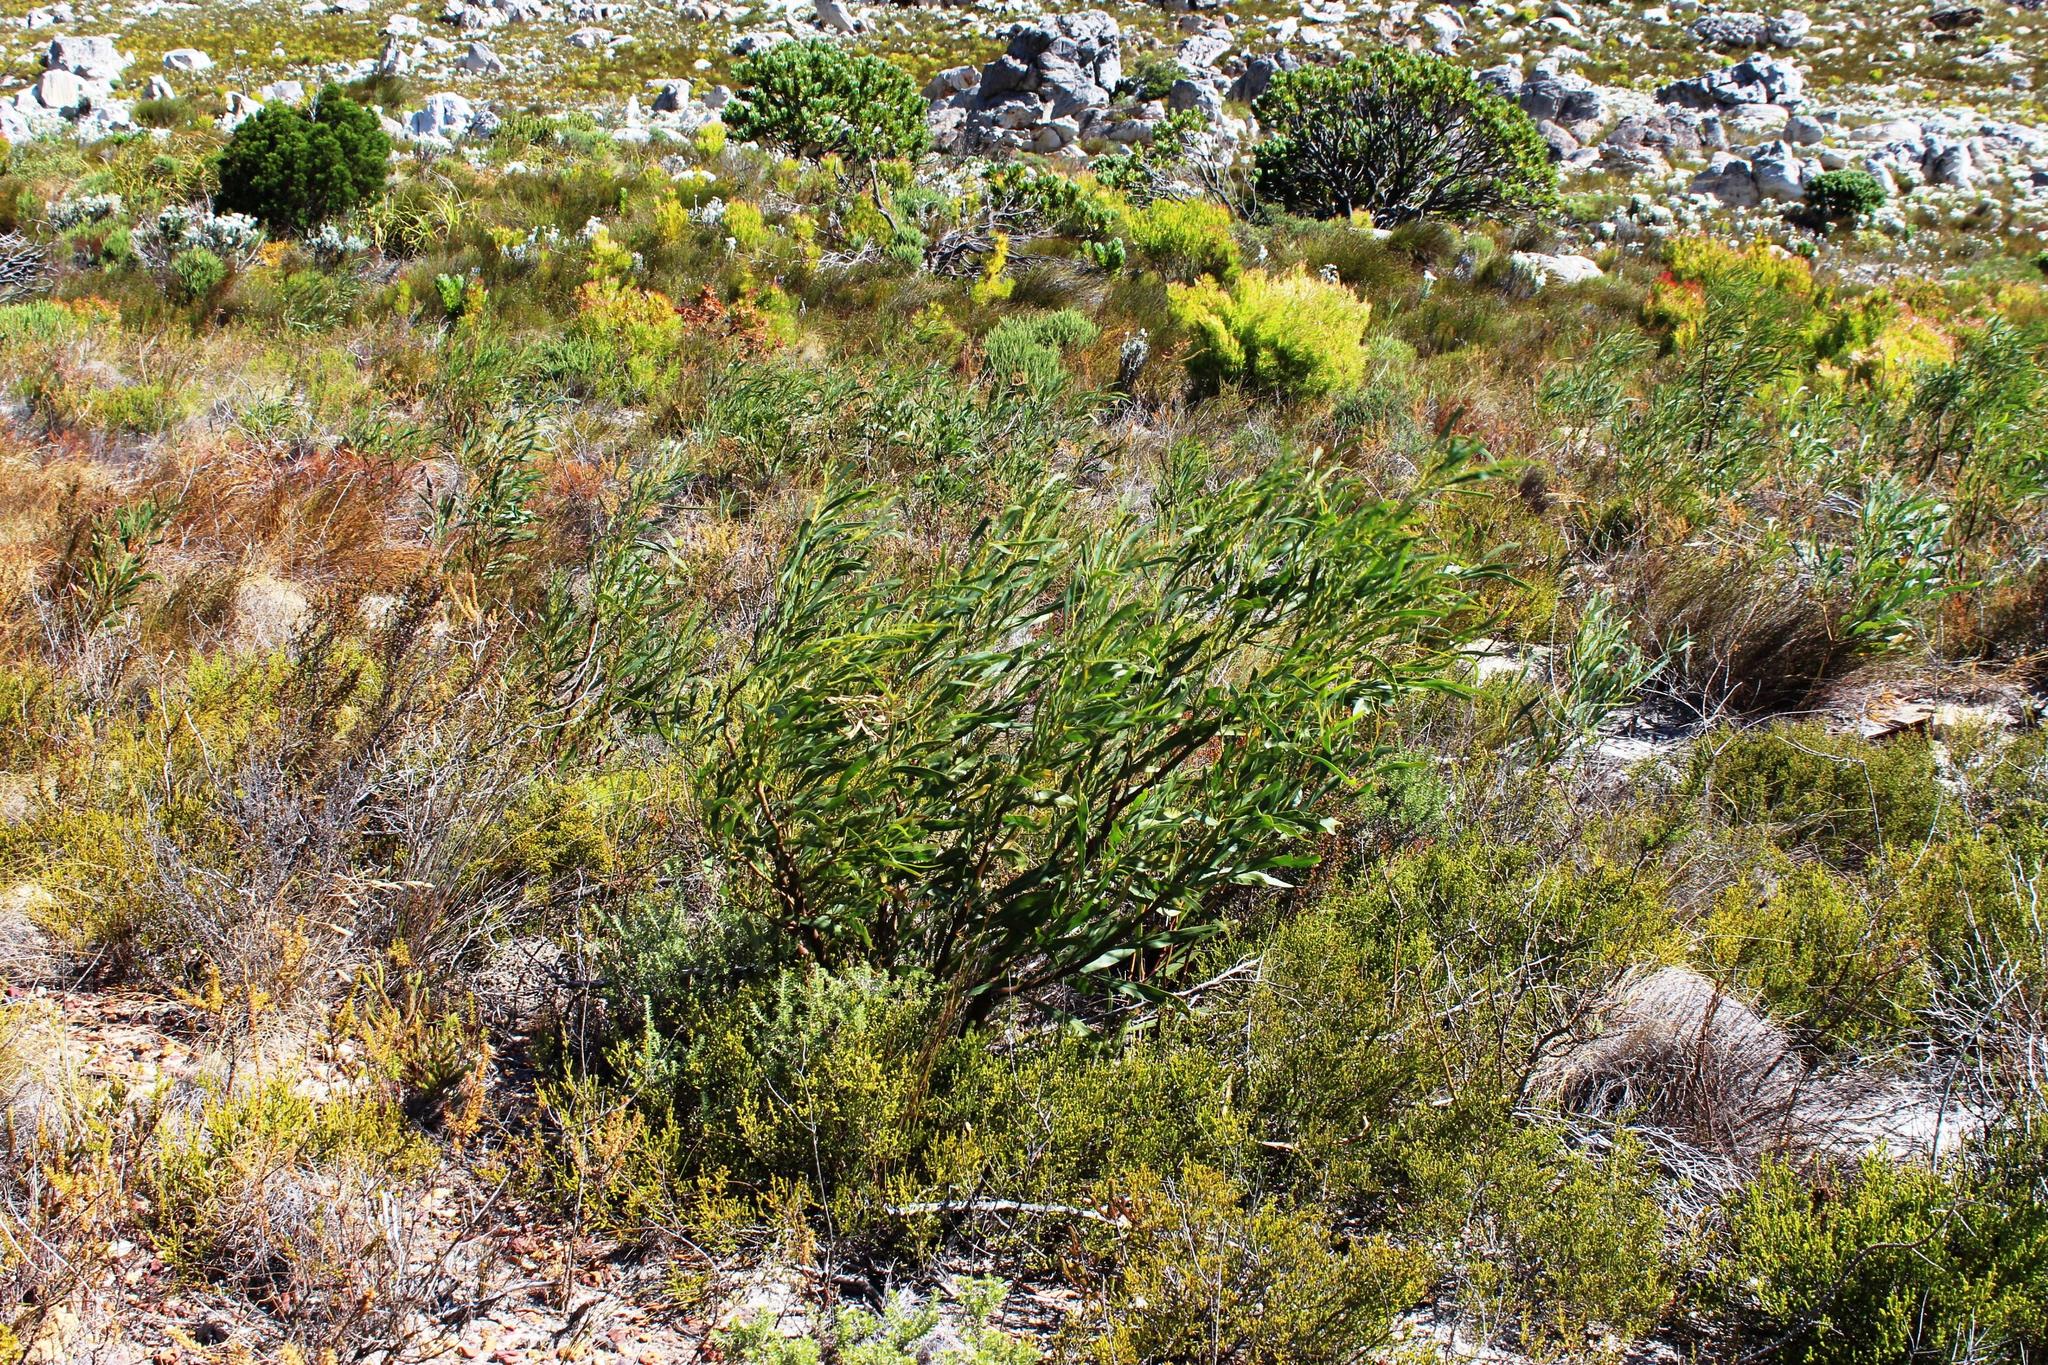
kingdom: Plantae
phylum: Tracheophyta
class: Magnoliopsida
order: Fabales
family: Fabaceae
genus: Acacia
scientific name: Acacia saligna
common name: Orange wattle
